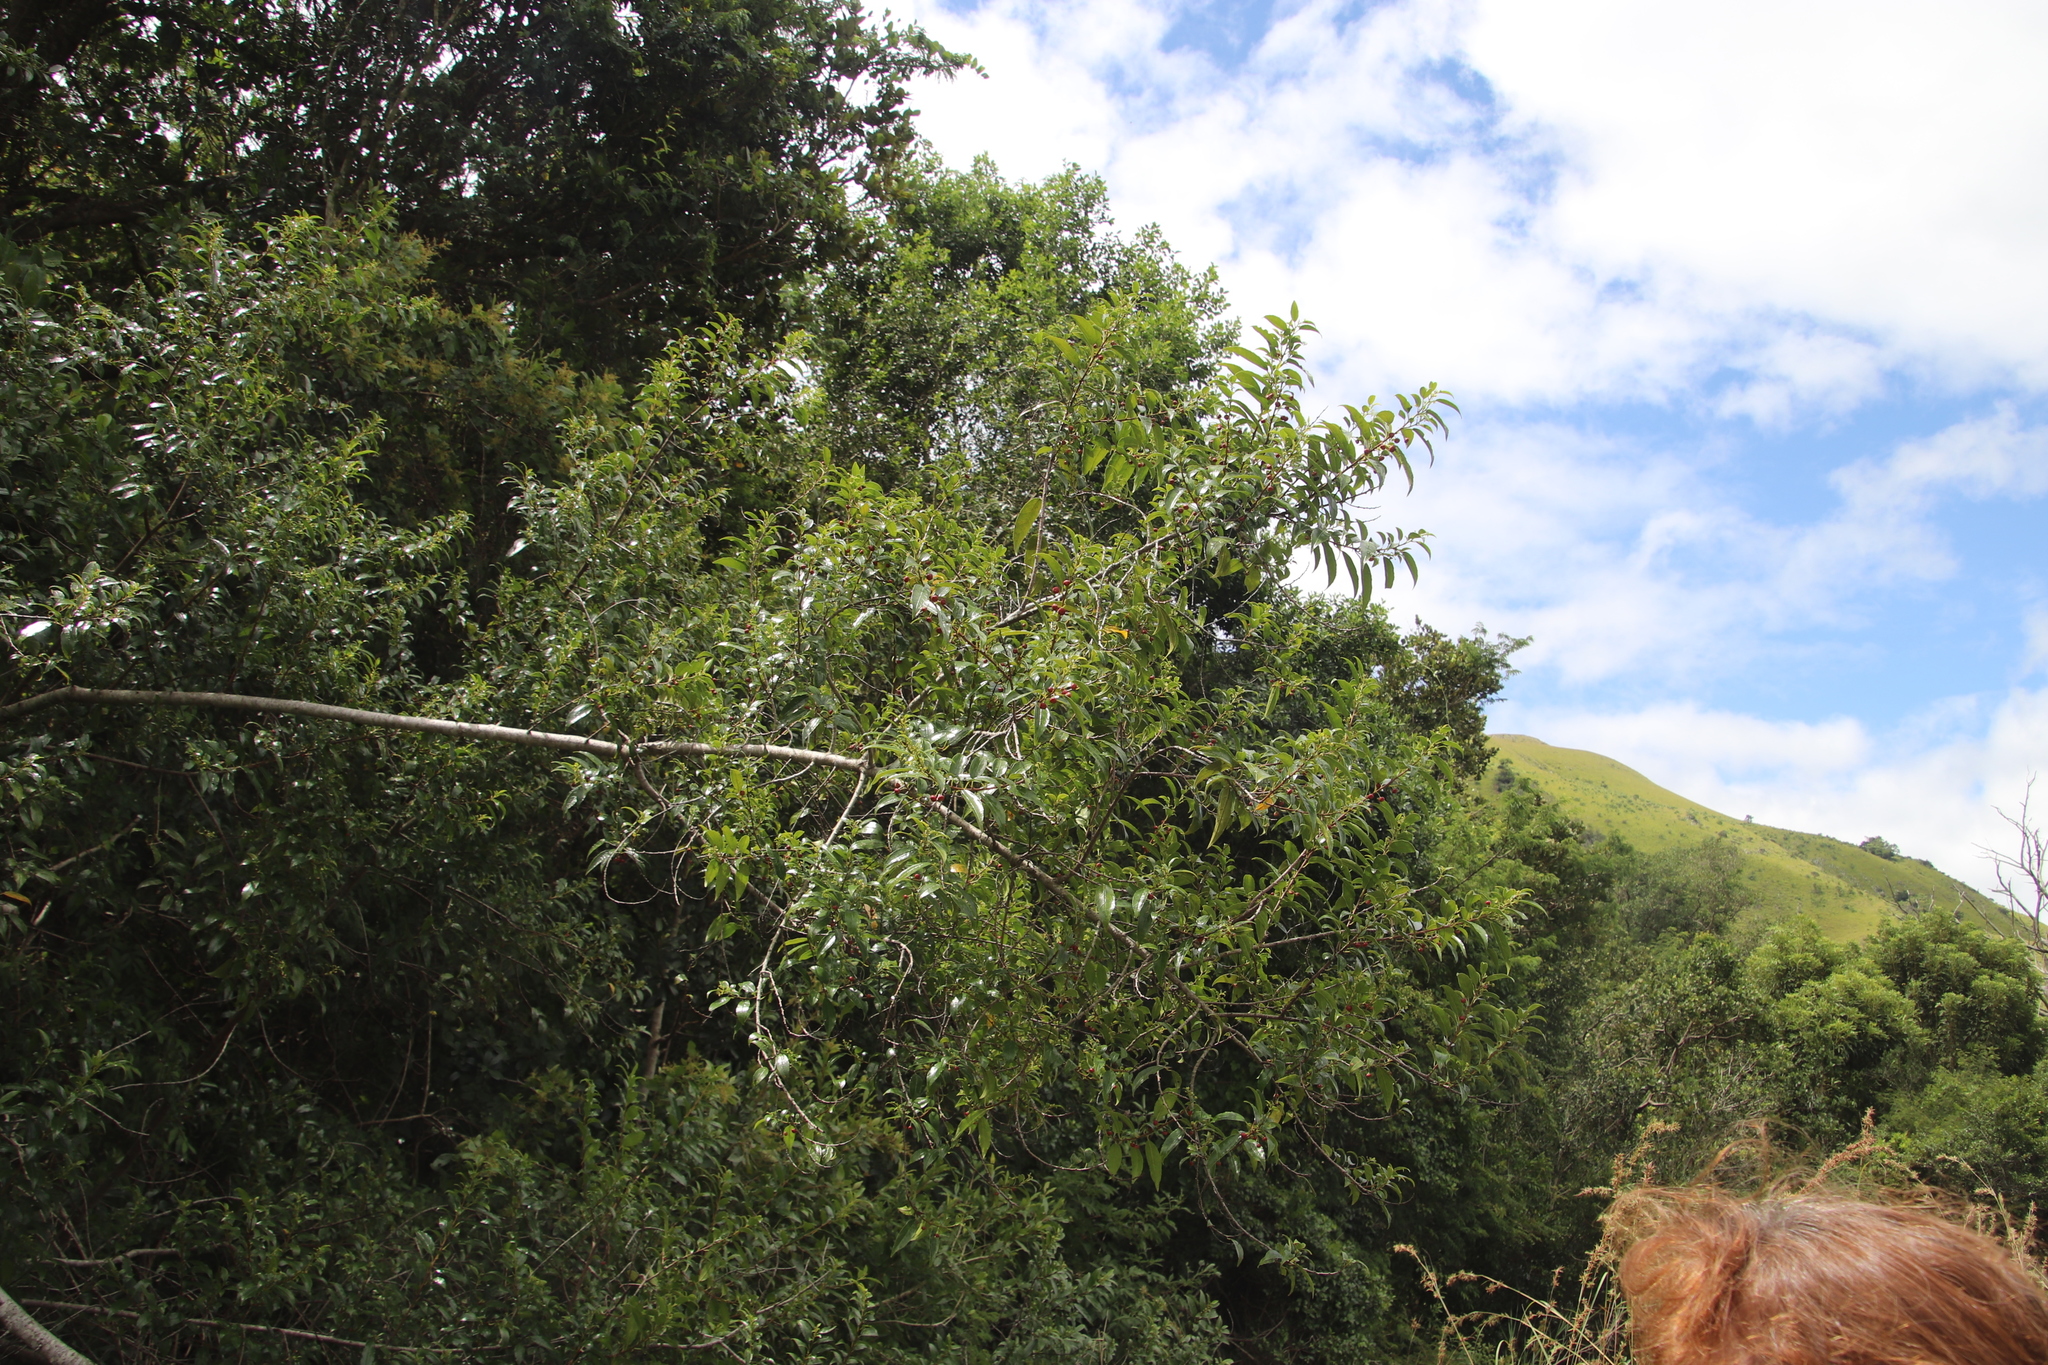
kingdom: Plantae
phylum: Tracheophyta
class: Magnoliopsida
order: Rosales
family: Rhamnaceae
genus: Rhamnus
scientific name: Rhamnus prinoides
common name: Dogwood
